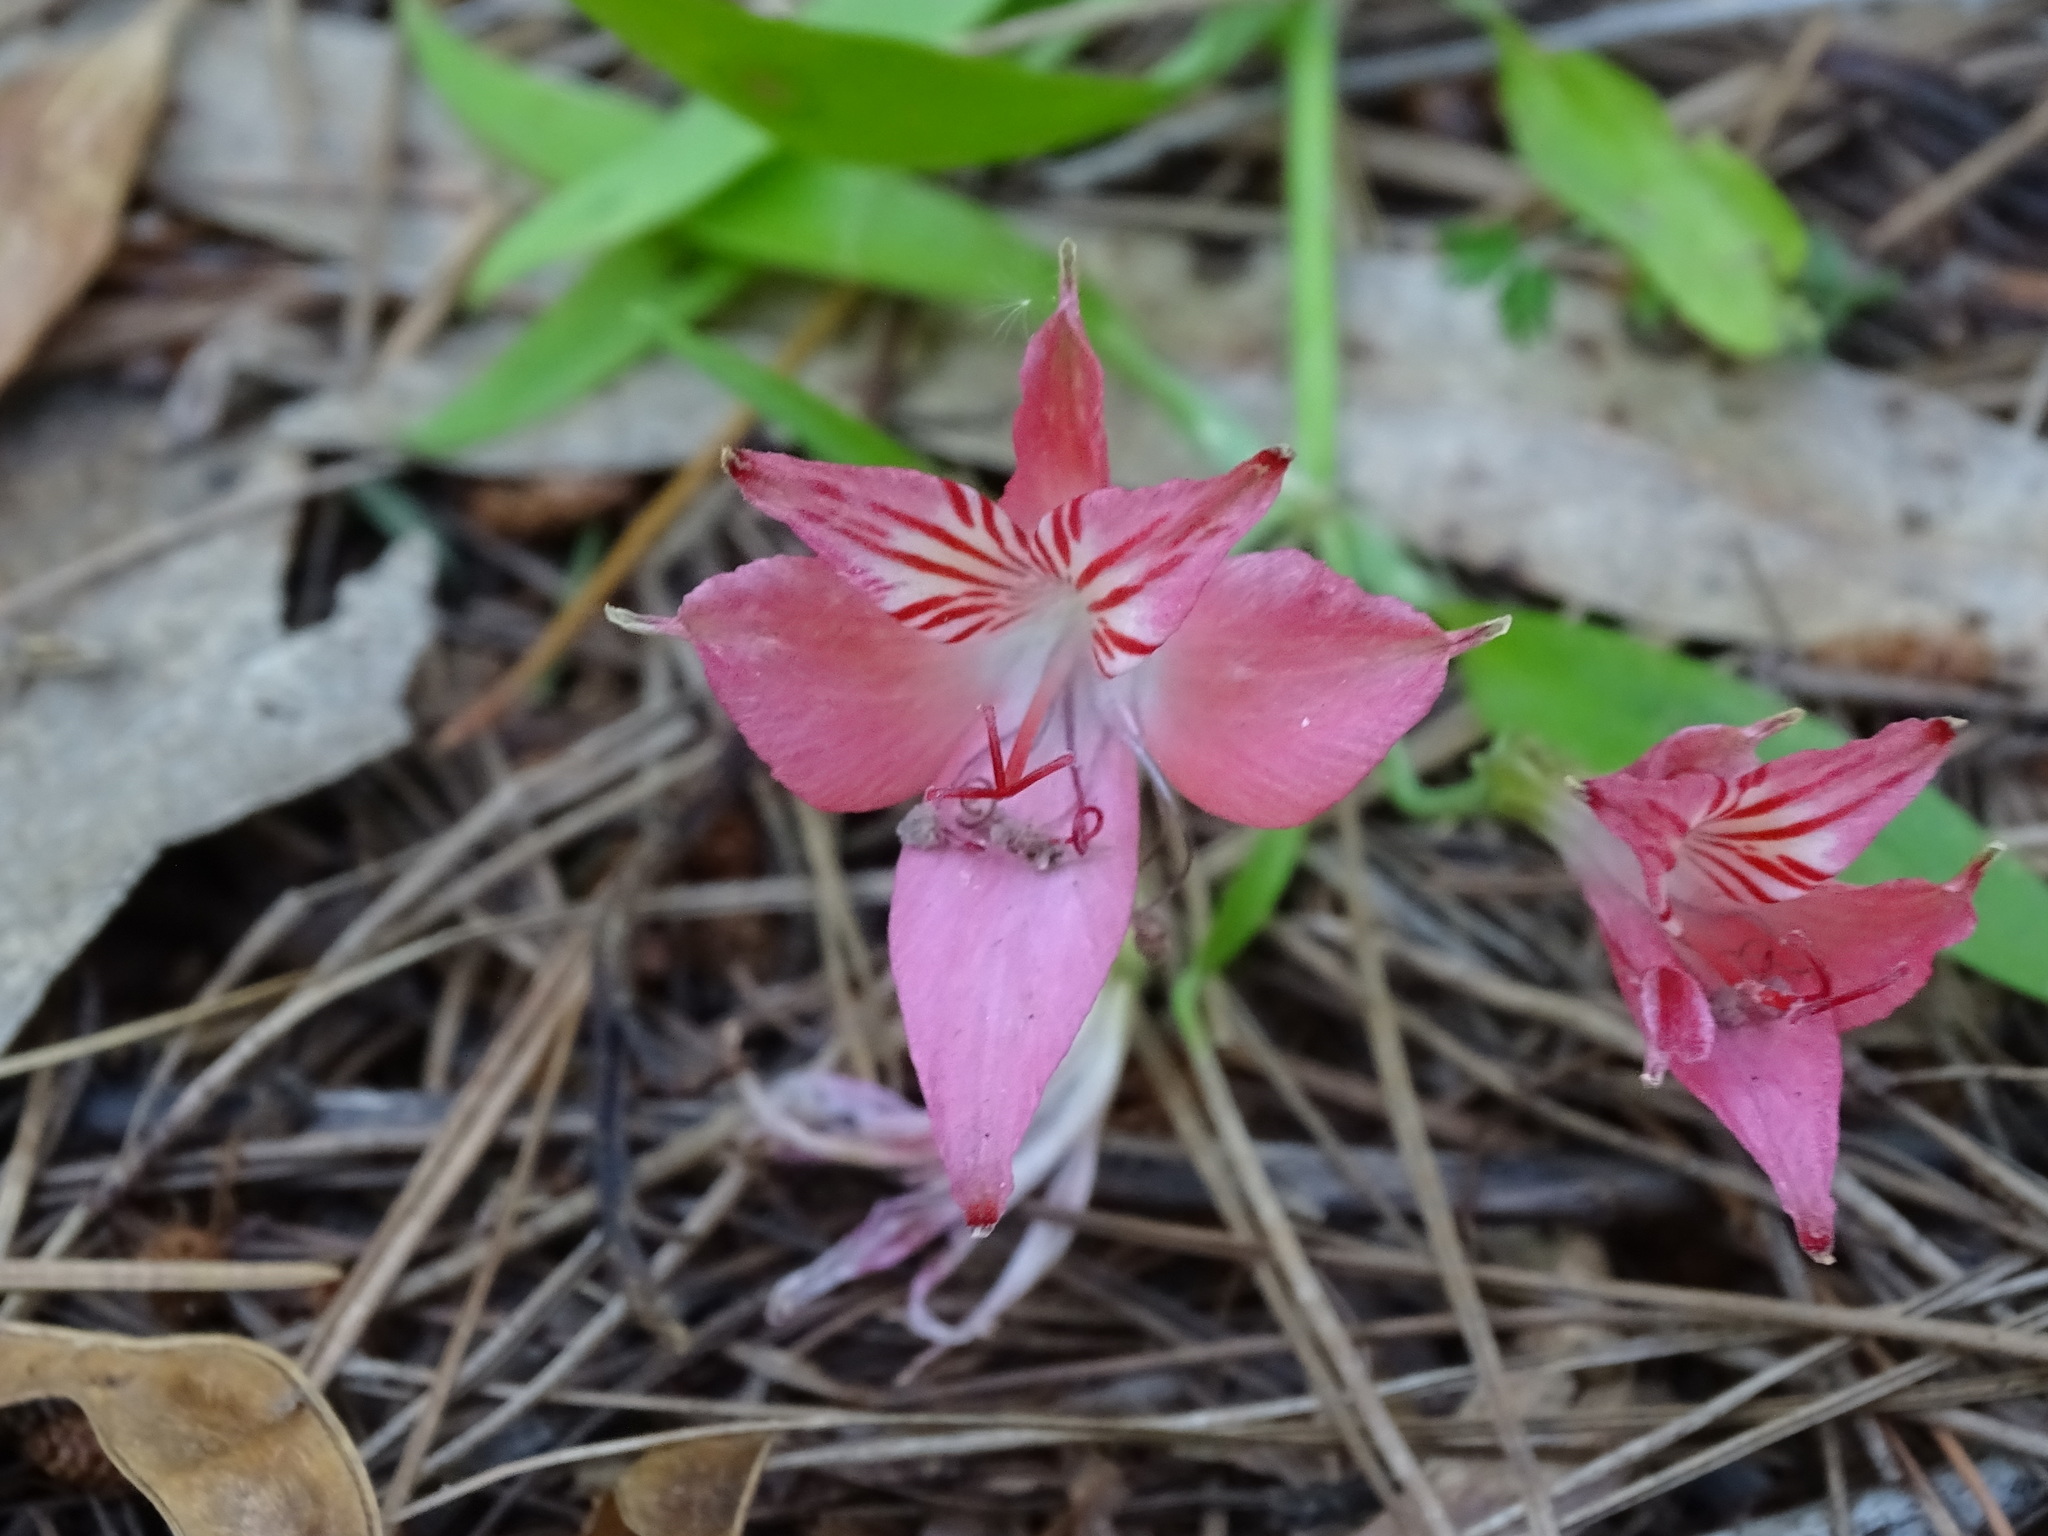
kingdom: Plantae
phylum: Tracheophyta
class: Liliopsida
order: Liliales
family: Alstroemeriaceae
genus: Alstroemeria
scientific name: Alstroemeria ligtu
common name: St. martin's-flower
